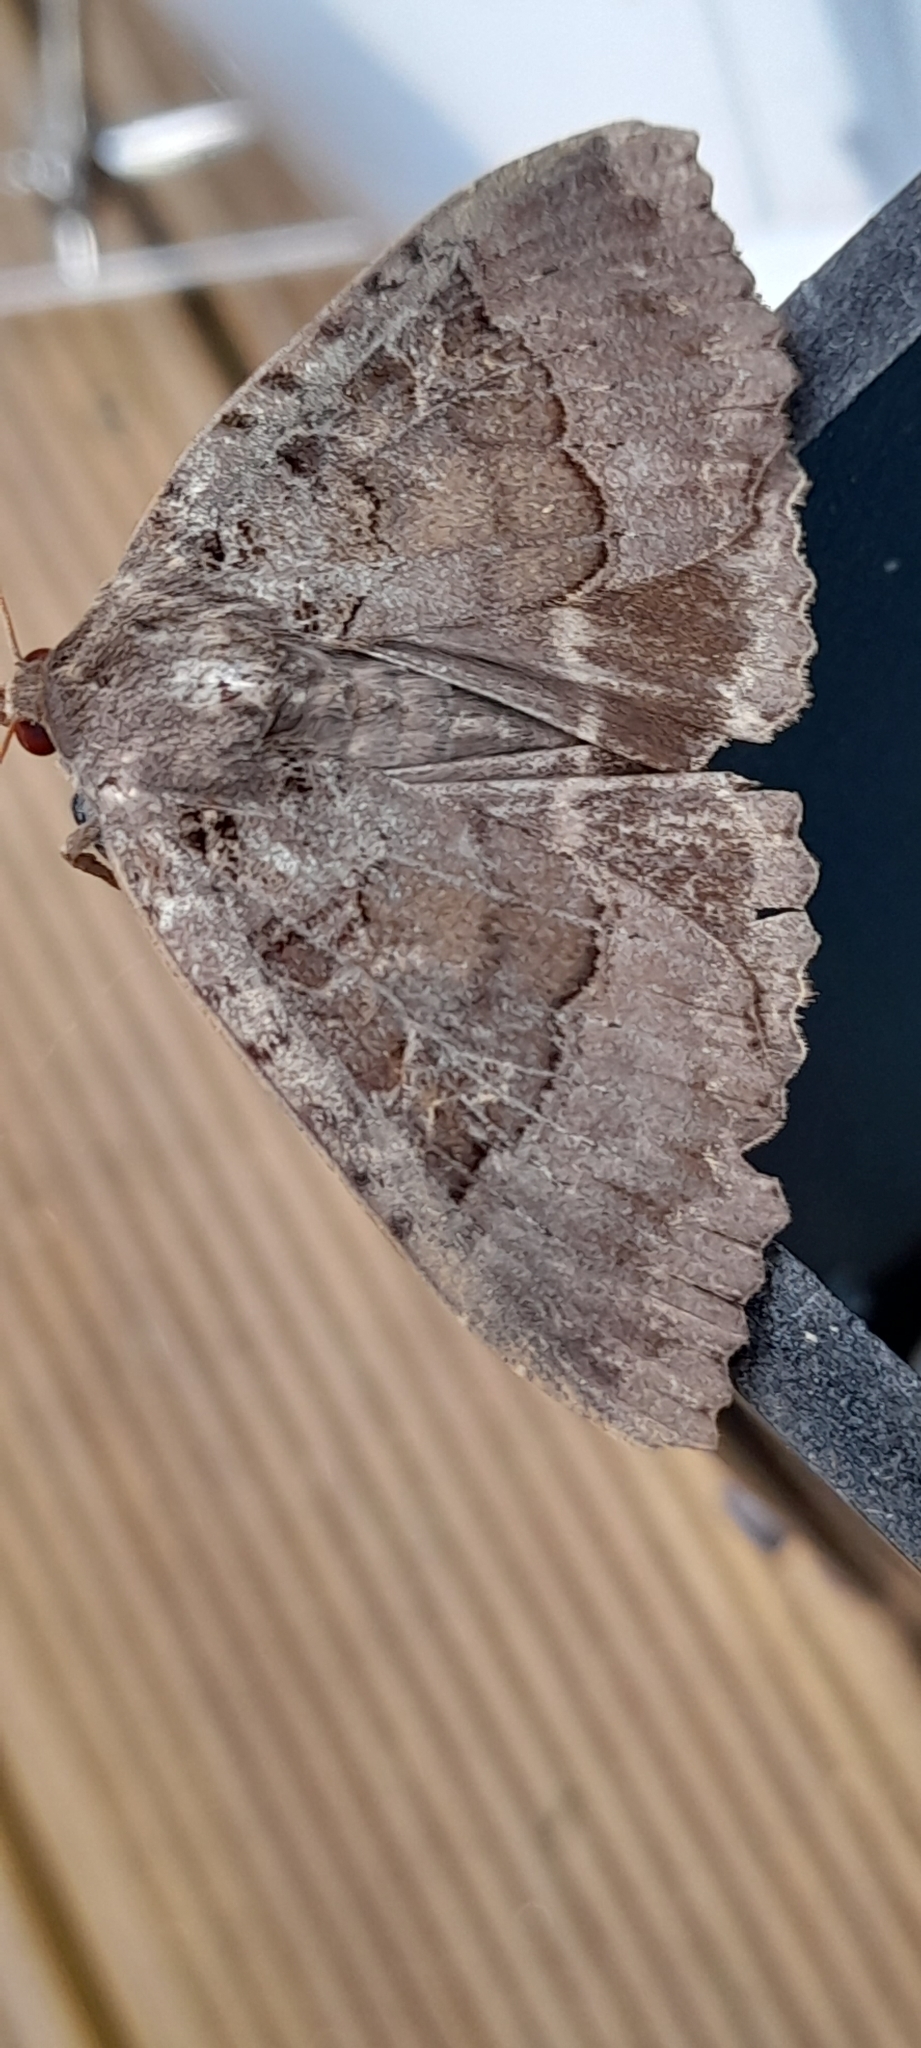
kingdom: Animalia
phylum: Arthropoda
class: Insecta
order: Lepidoptera
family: Noctuidae
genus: Mormo
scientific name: Mormo maura
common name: Old lady
